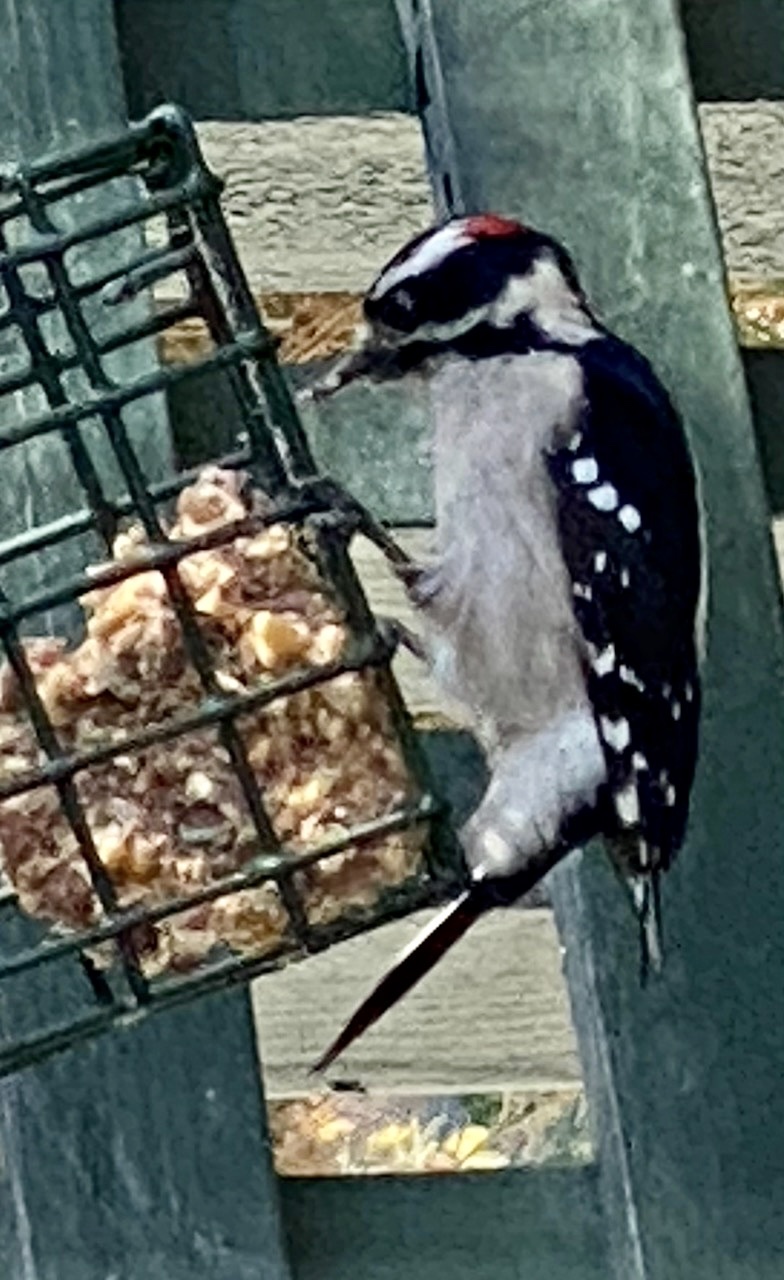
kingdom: Animalia
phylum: Chordata
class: Aves
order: Piciformes
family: Picidae
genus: Dryobates
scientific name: Dryobates pubescens
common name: Downy woodpecker
